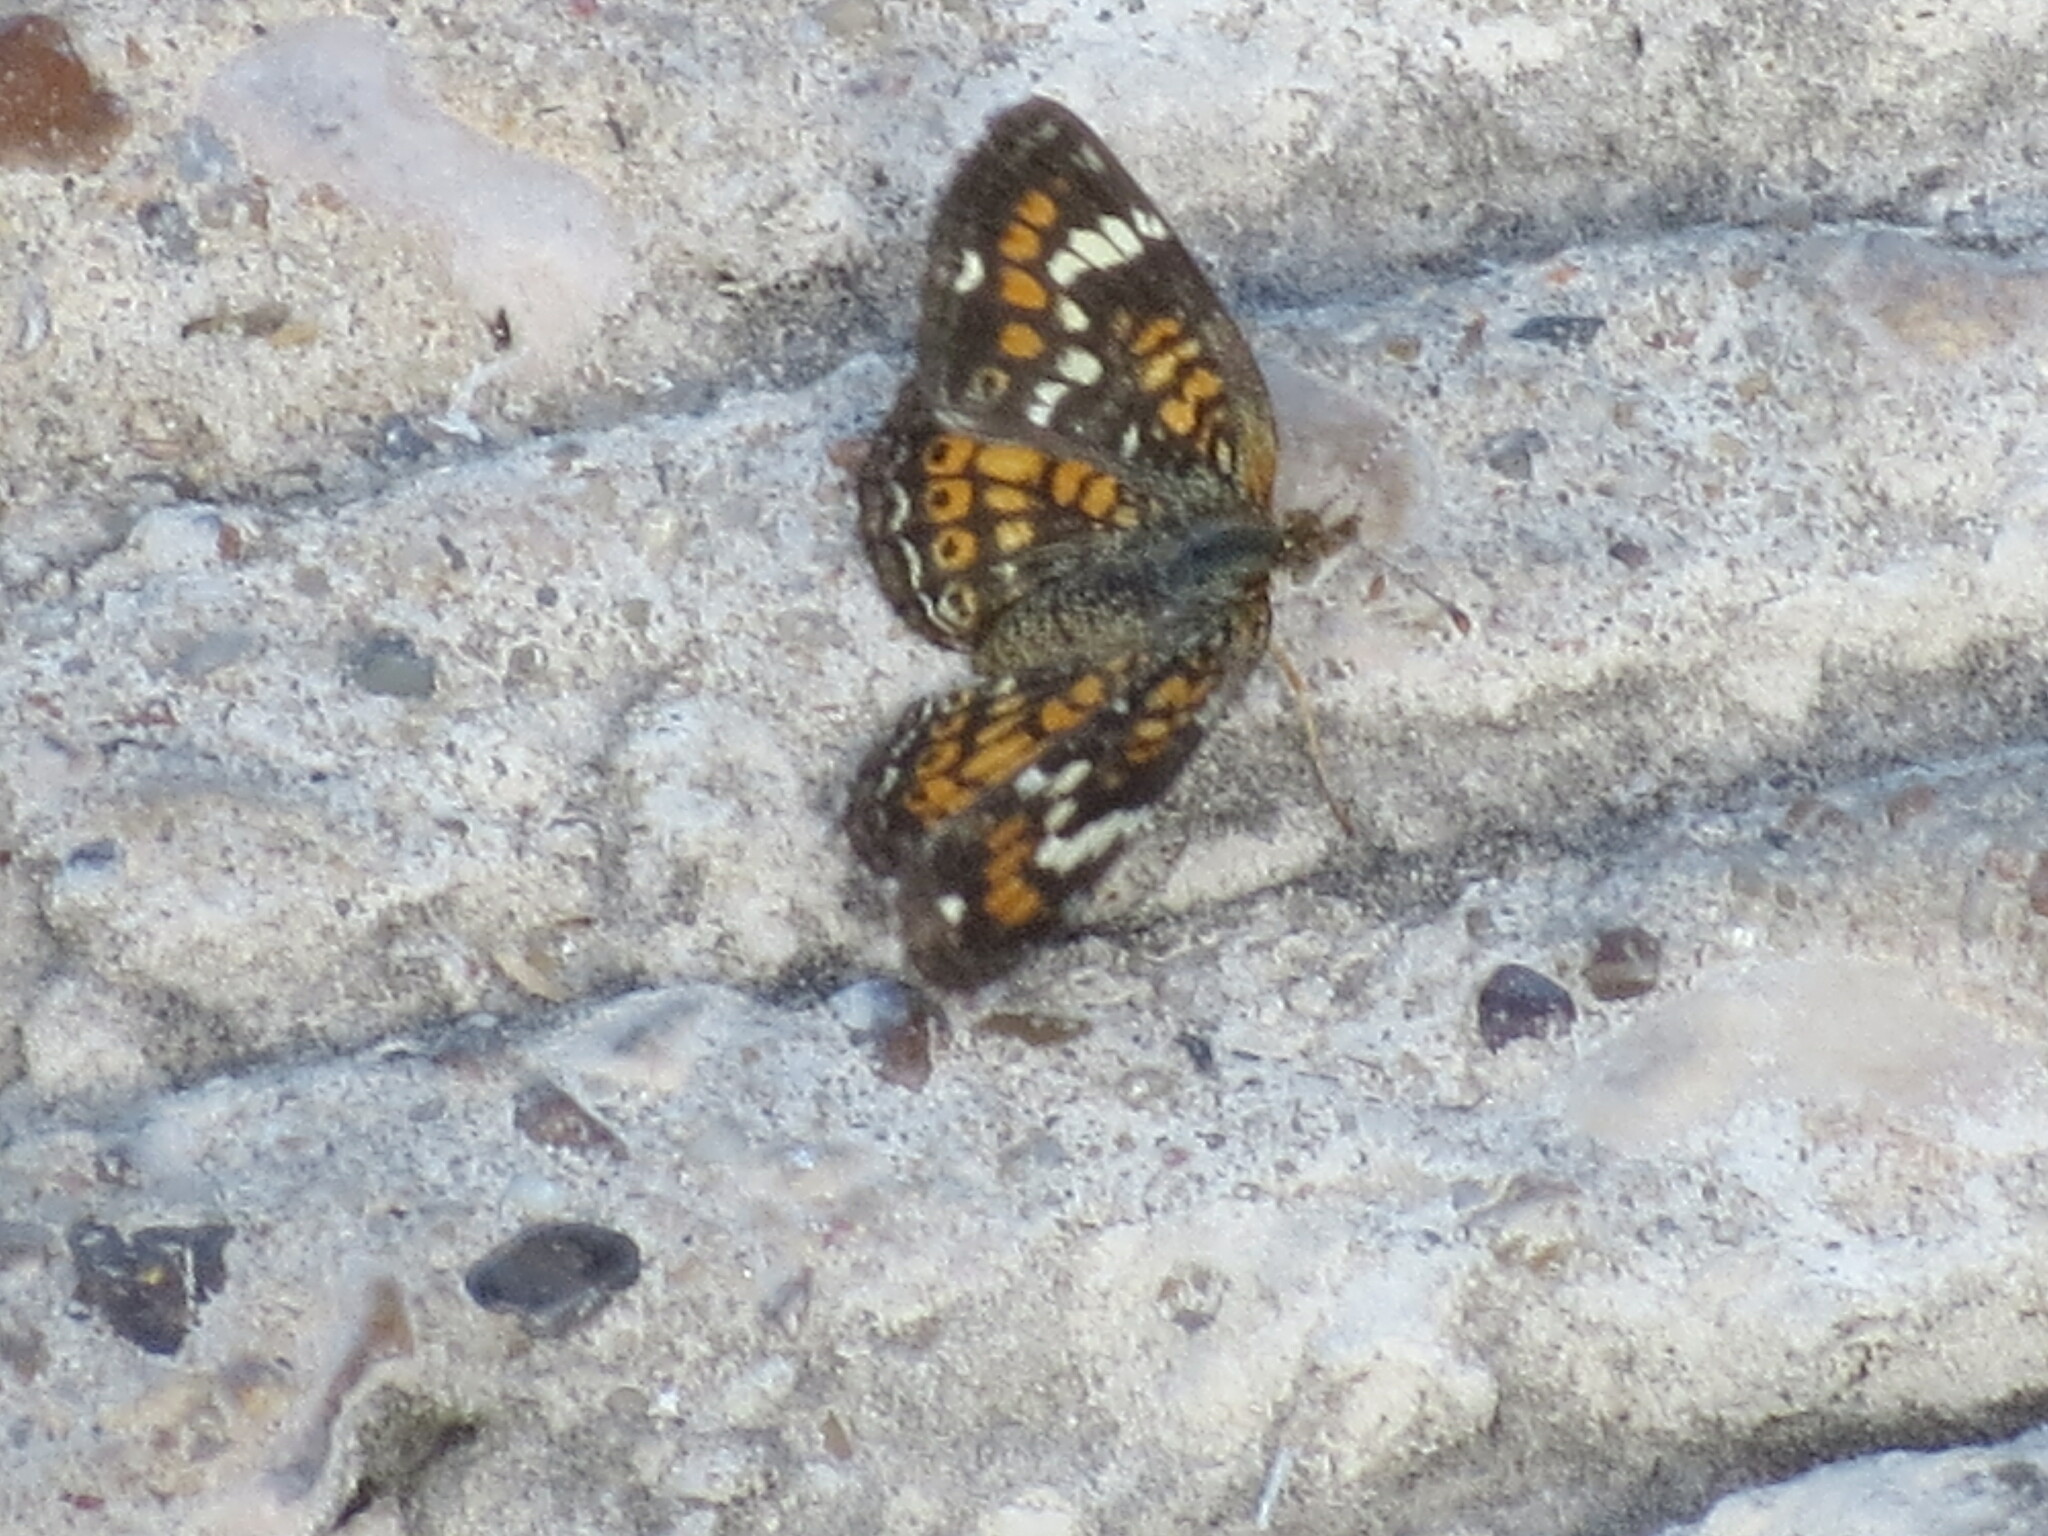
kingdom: Animalia
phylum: Arthropoda
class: Insecta
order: Lepidoptera
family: Nymphalidae
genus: Phyciodes
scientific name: Phyciodes phaon
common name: Phaon crescent
